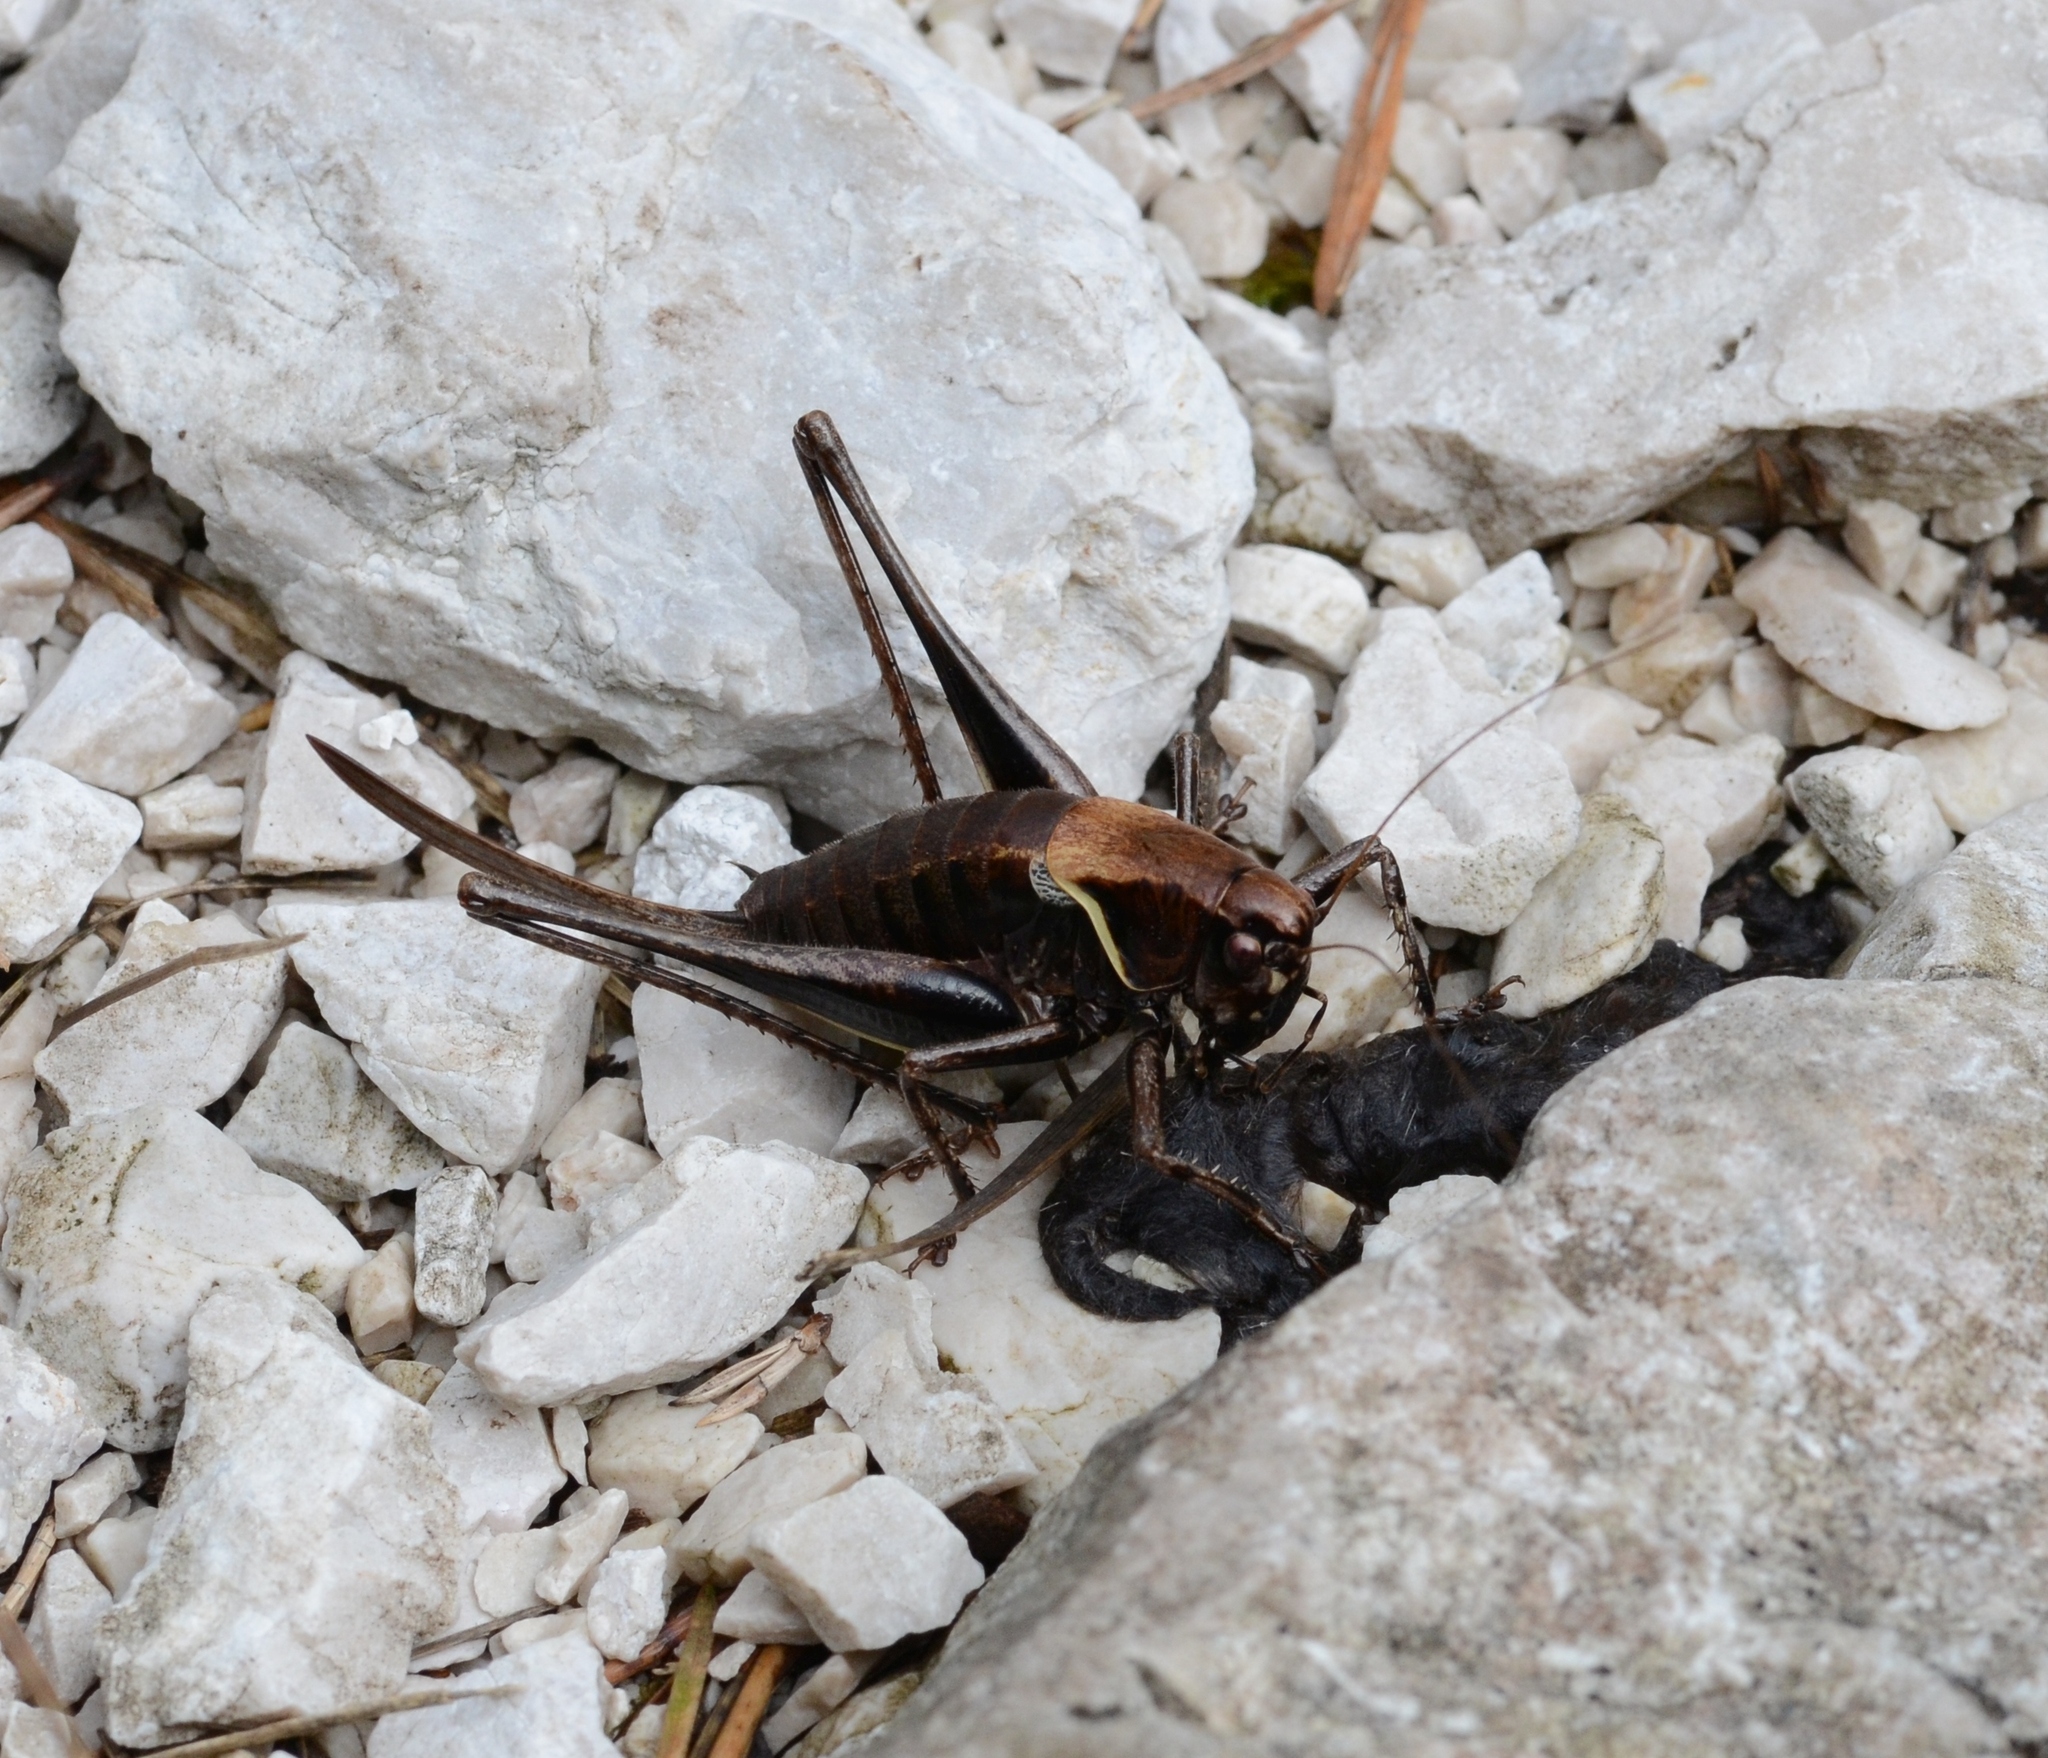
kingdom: Animalia
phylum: Arthropoda
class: Insecta
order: Orthoptera
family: Tettigoniidae
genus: Pholidoptera
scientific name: Pholidoptera aptera
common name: Alpine dark bush-cricket
